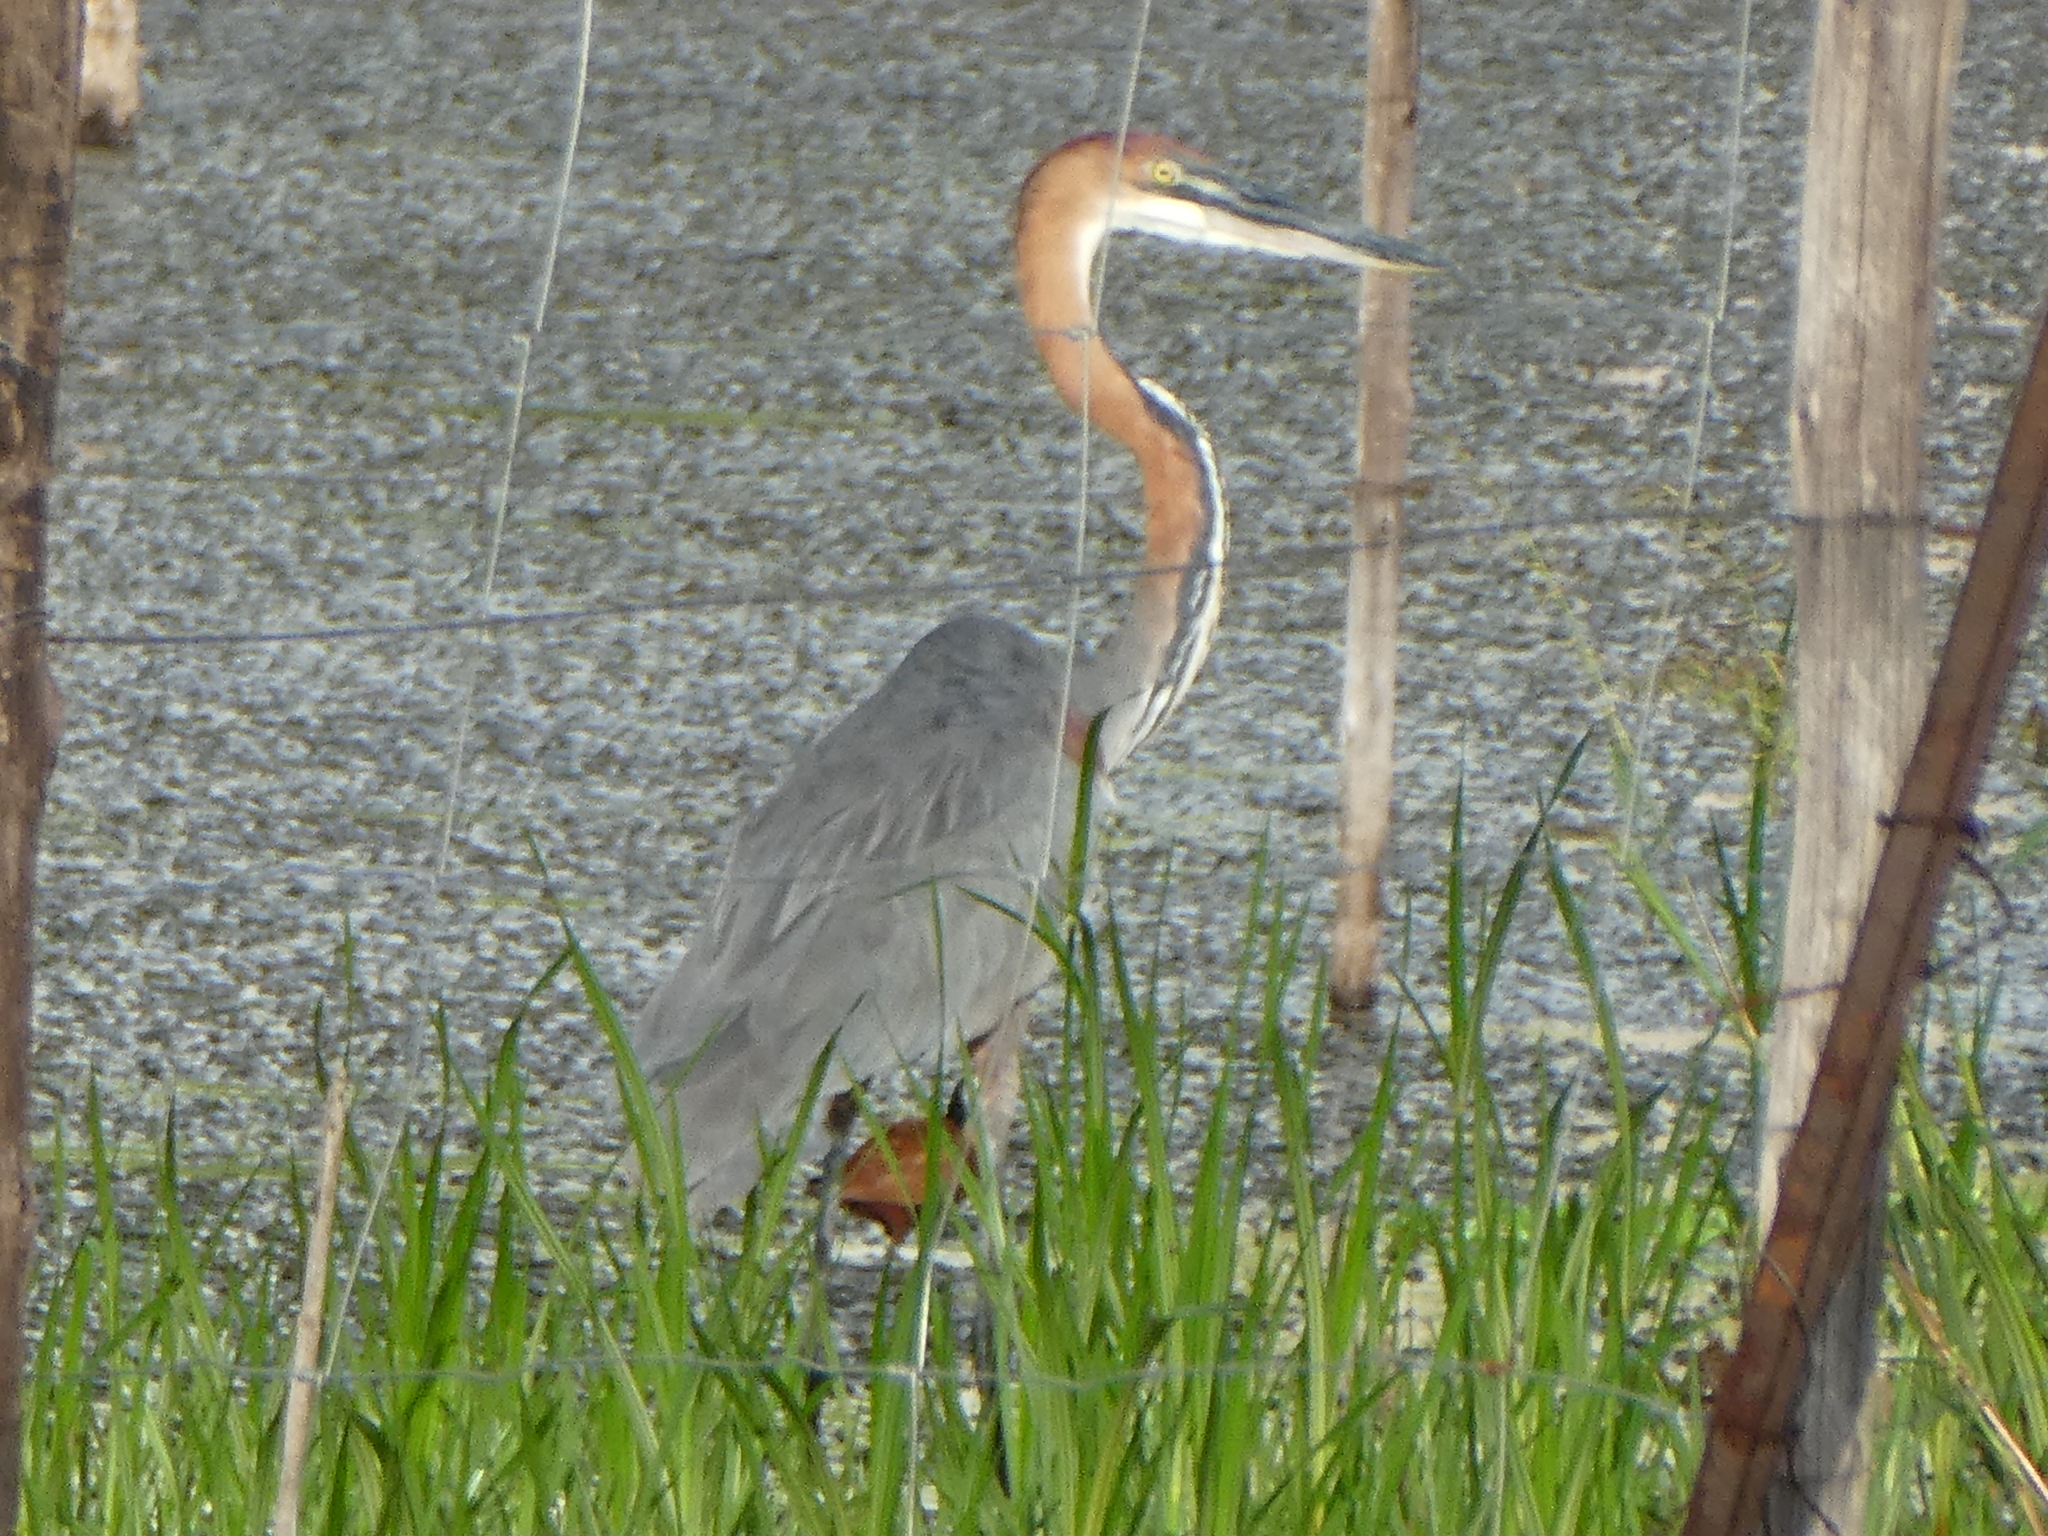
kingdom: Animalia
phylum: Chordata
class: Aves
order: Pelecaniformes
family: Ardeidae
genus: Ardea
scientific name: Ardea goliath
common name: Goliath heron
